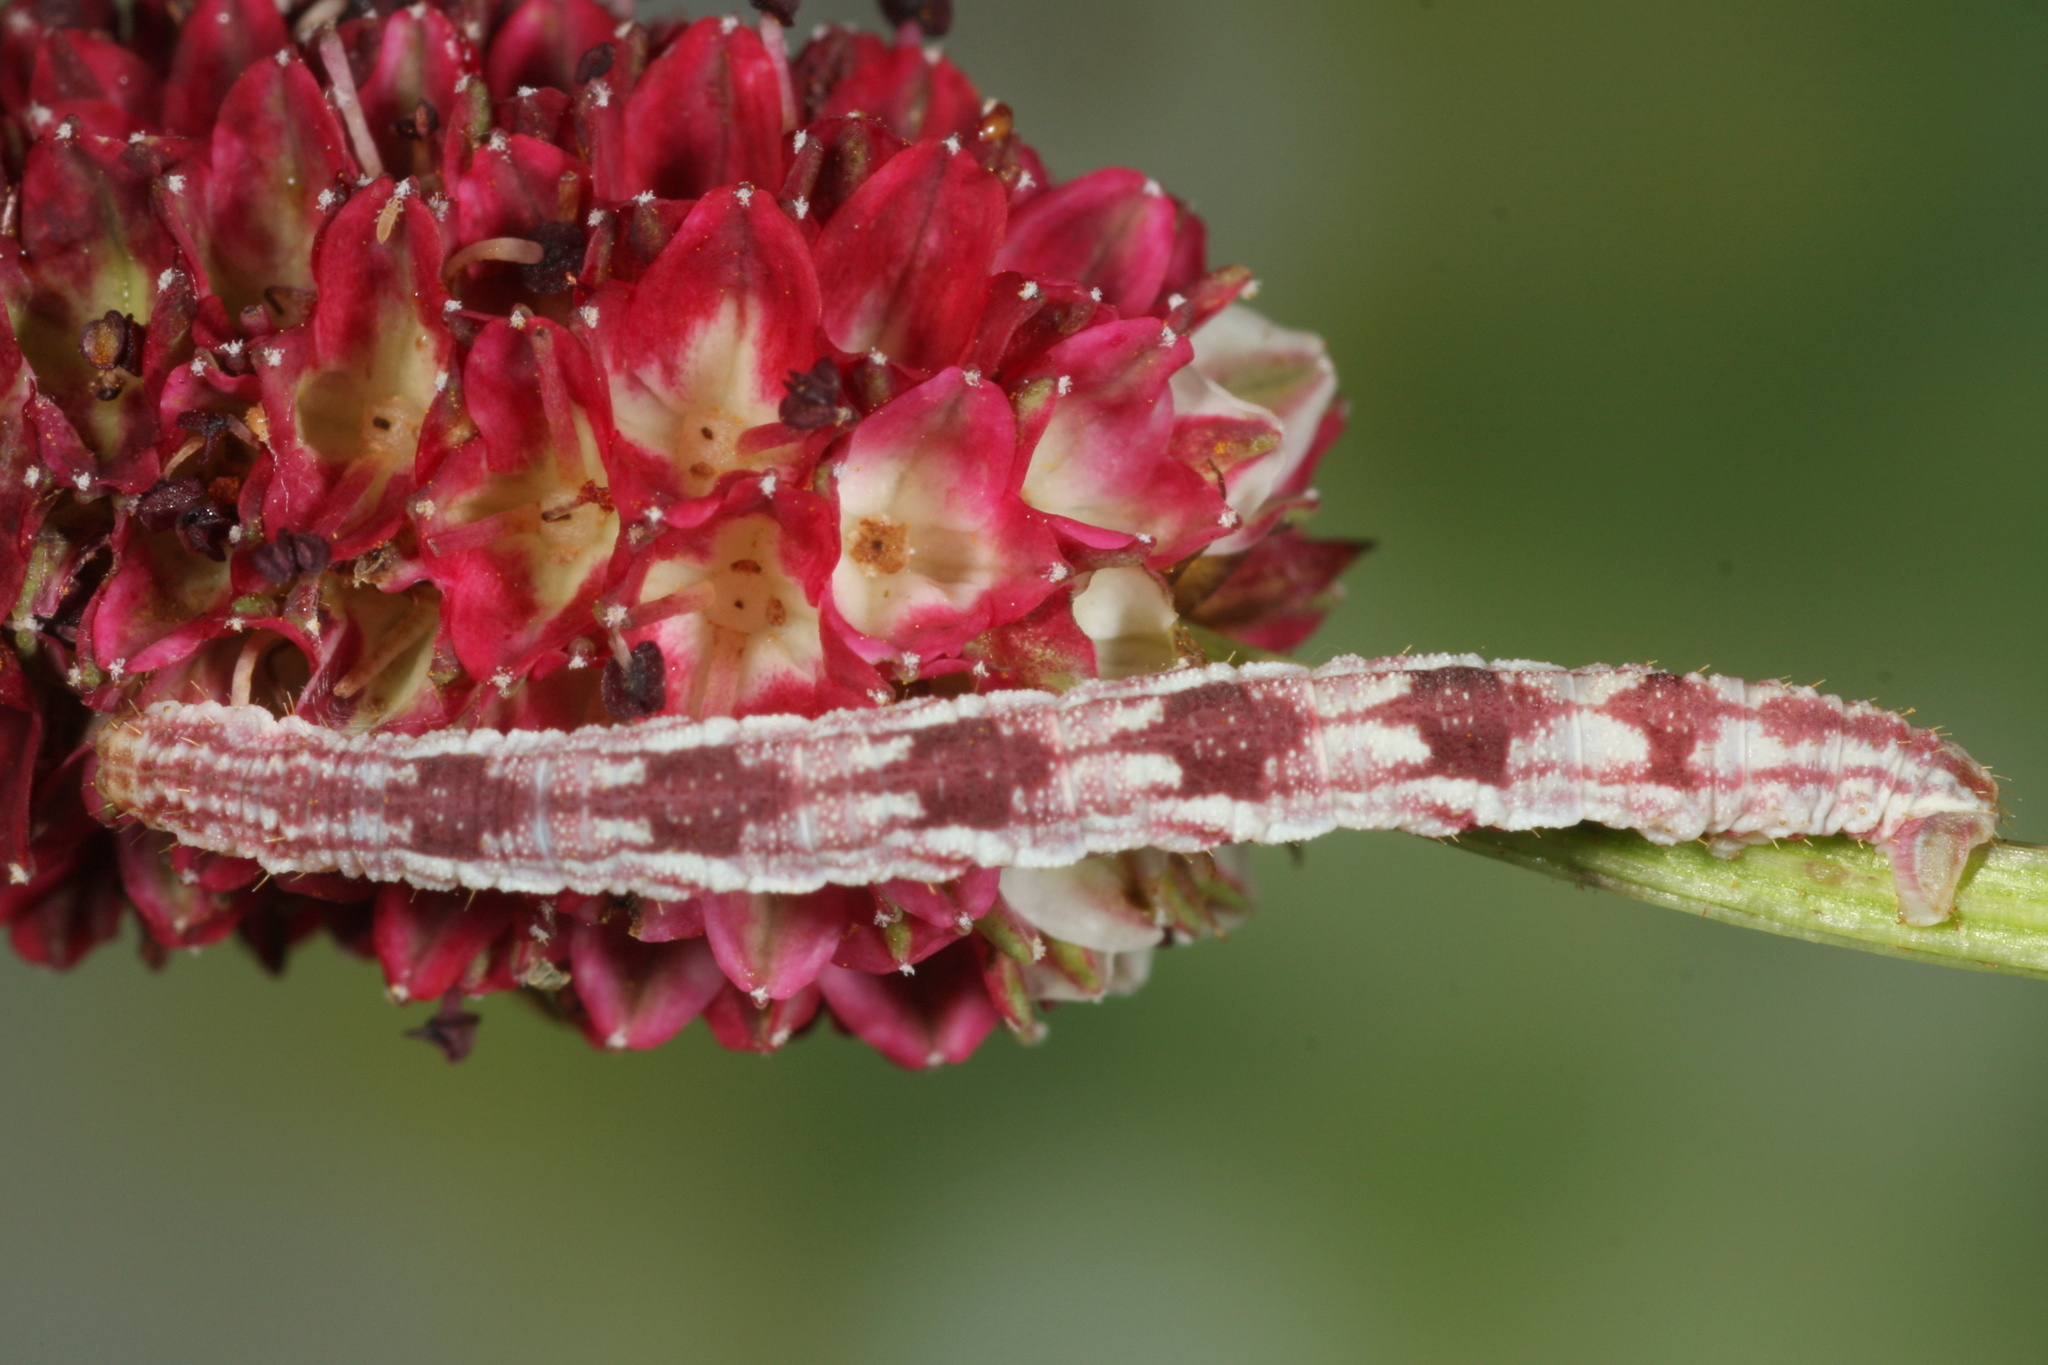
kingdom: Animalia
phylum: Arthropoda
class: Insecta
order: Lepidoptera
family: Geometridae
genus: Eupithecia
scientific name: Eupithecia satyrata
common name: Satyr pug
